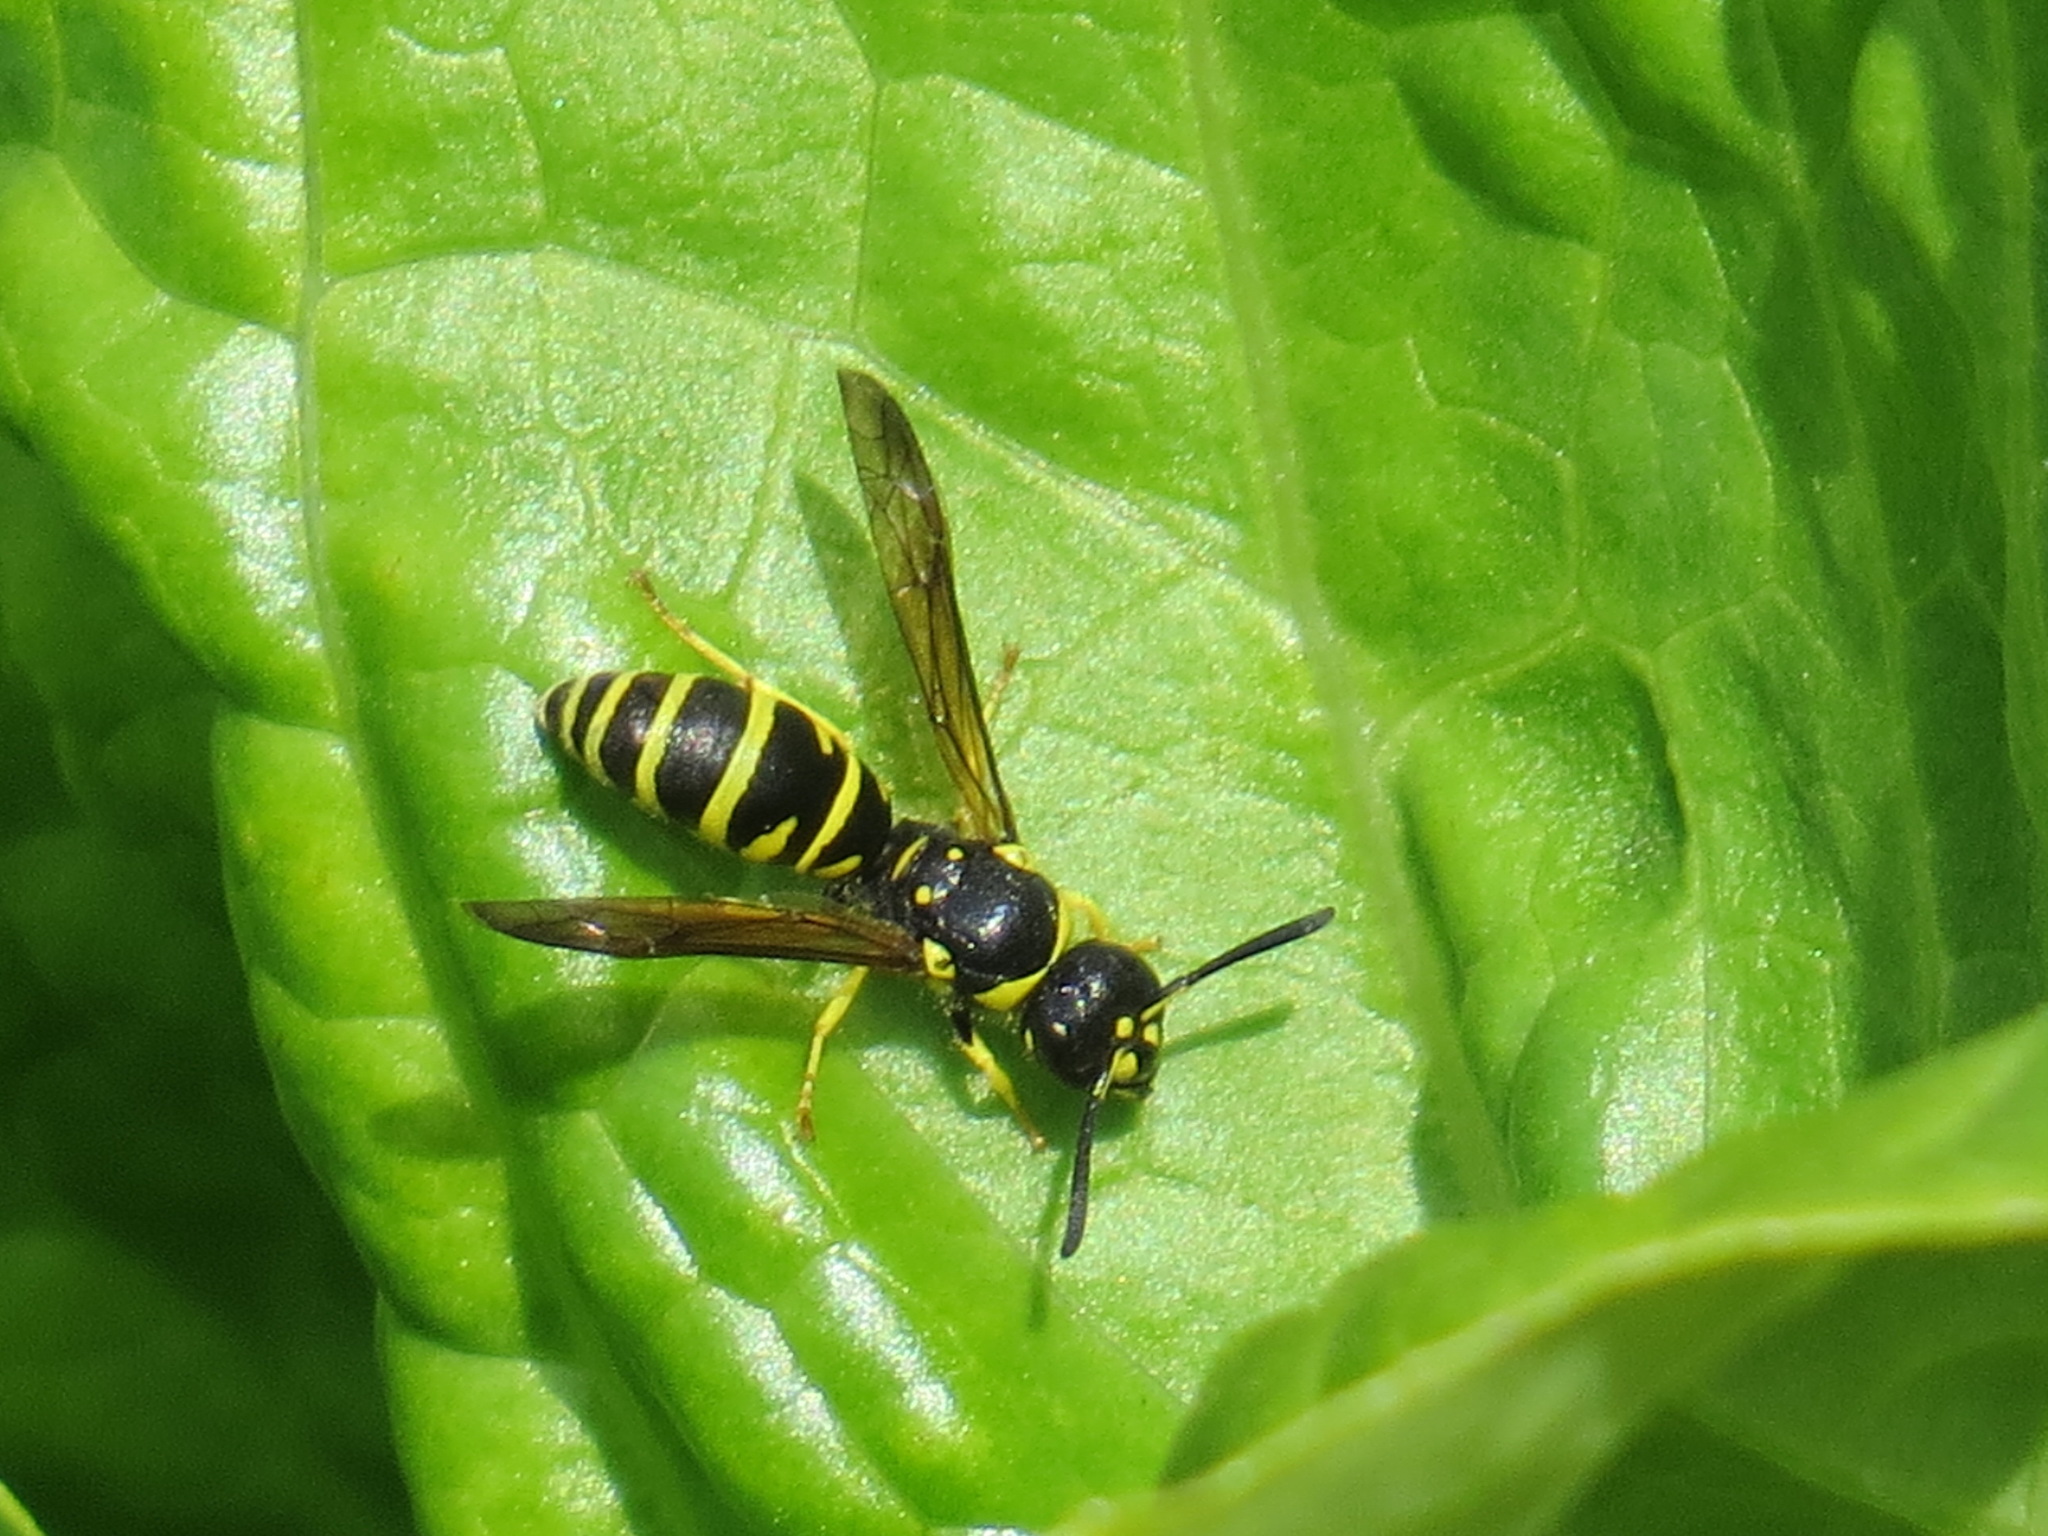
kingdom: Animalia
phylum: Arthropoda
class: Insecta
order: Hymenoptera
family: Vespidae
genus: Ancistrocerus
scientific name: Ancistrocerus adiabatus
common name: Bramble mason wasp
